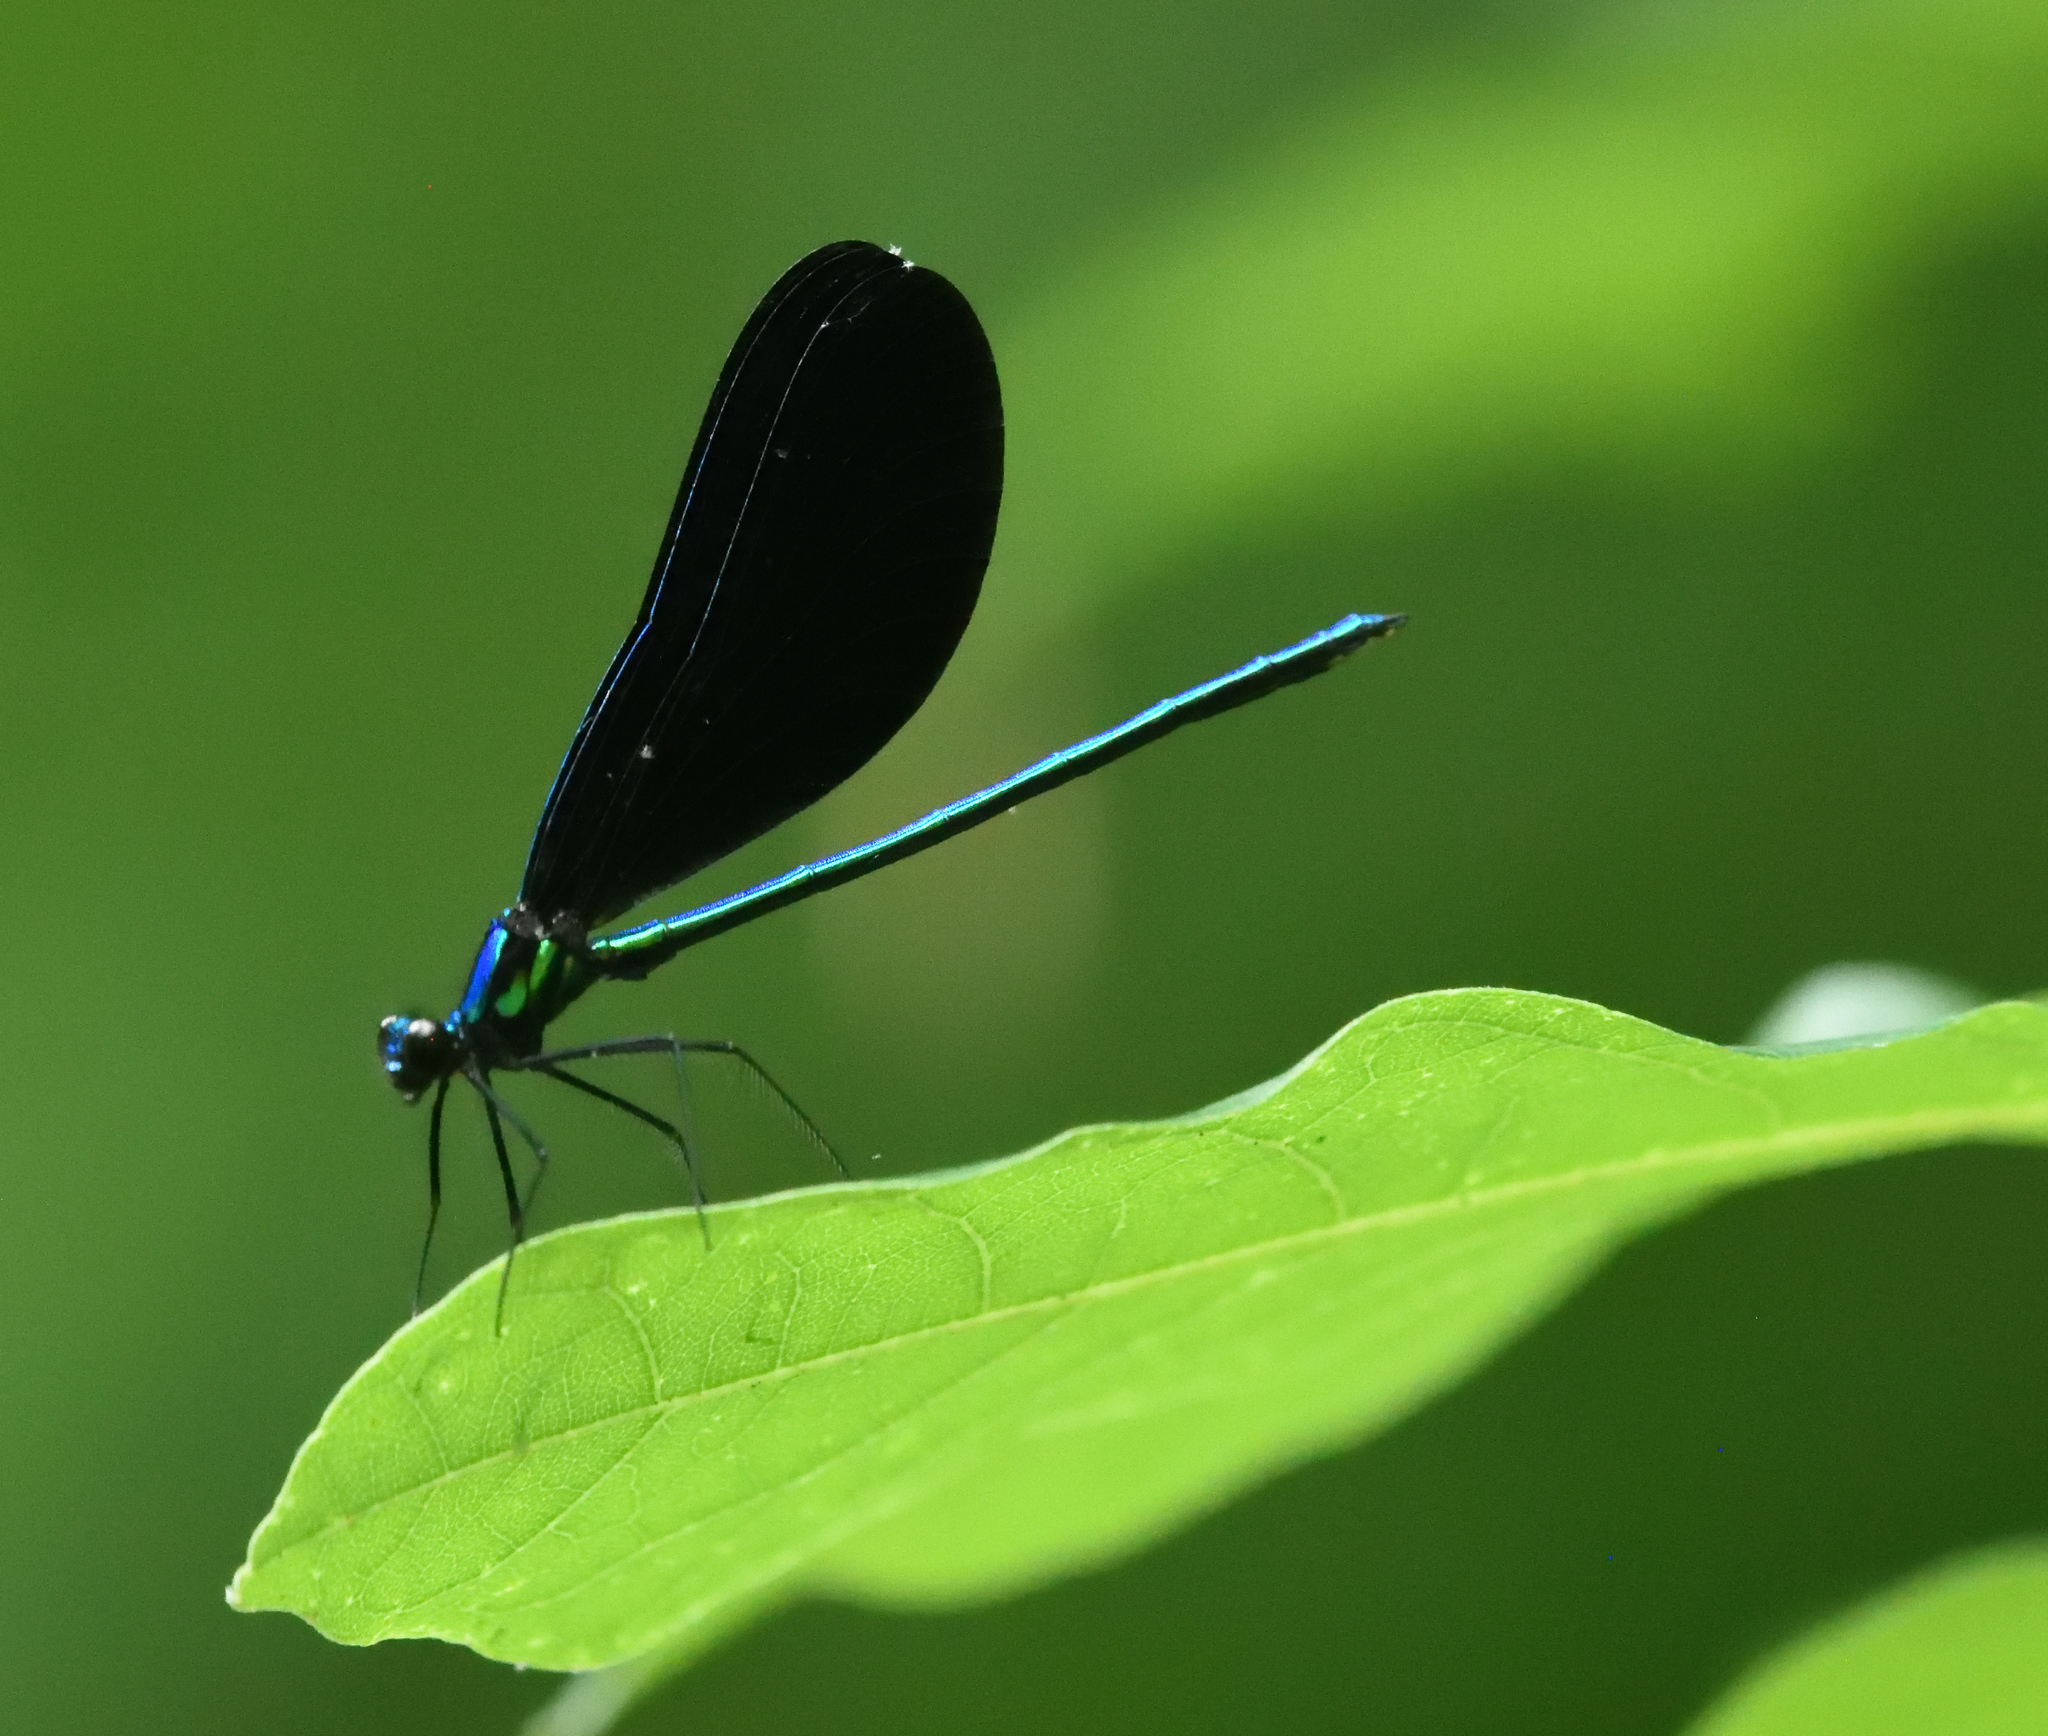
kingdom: Animalia
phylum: Arthropoda
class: Insecta
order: Odonata
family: Calopterygidae
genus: Calopteryx
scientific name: Calopteryx maculata
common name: Ebony jewelwing
